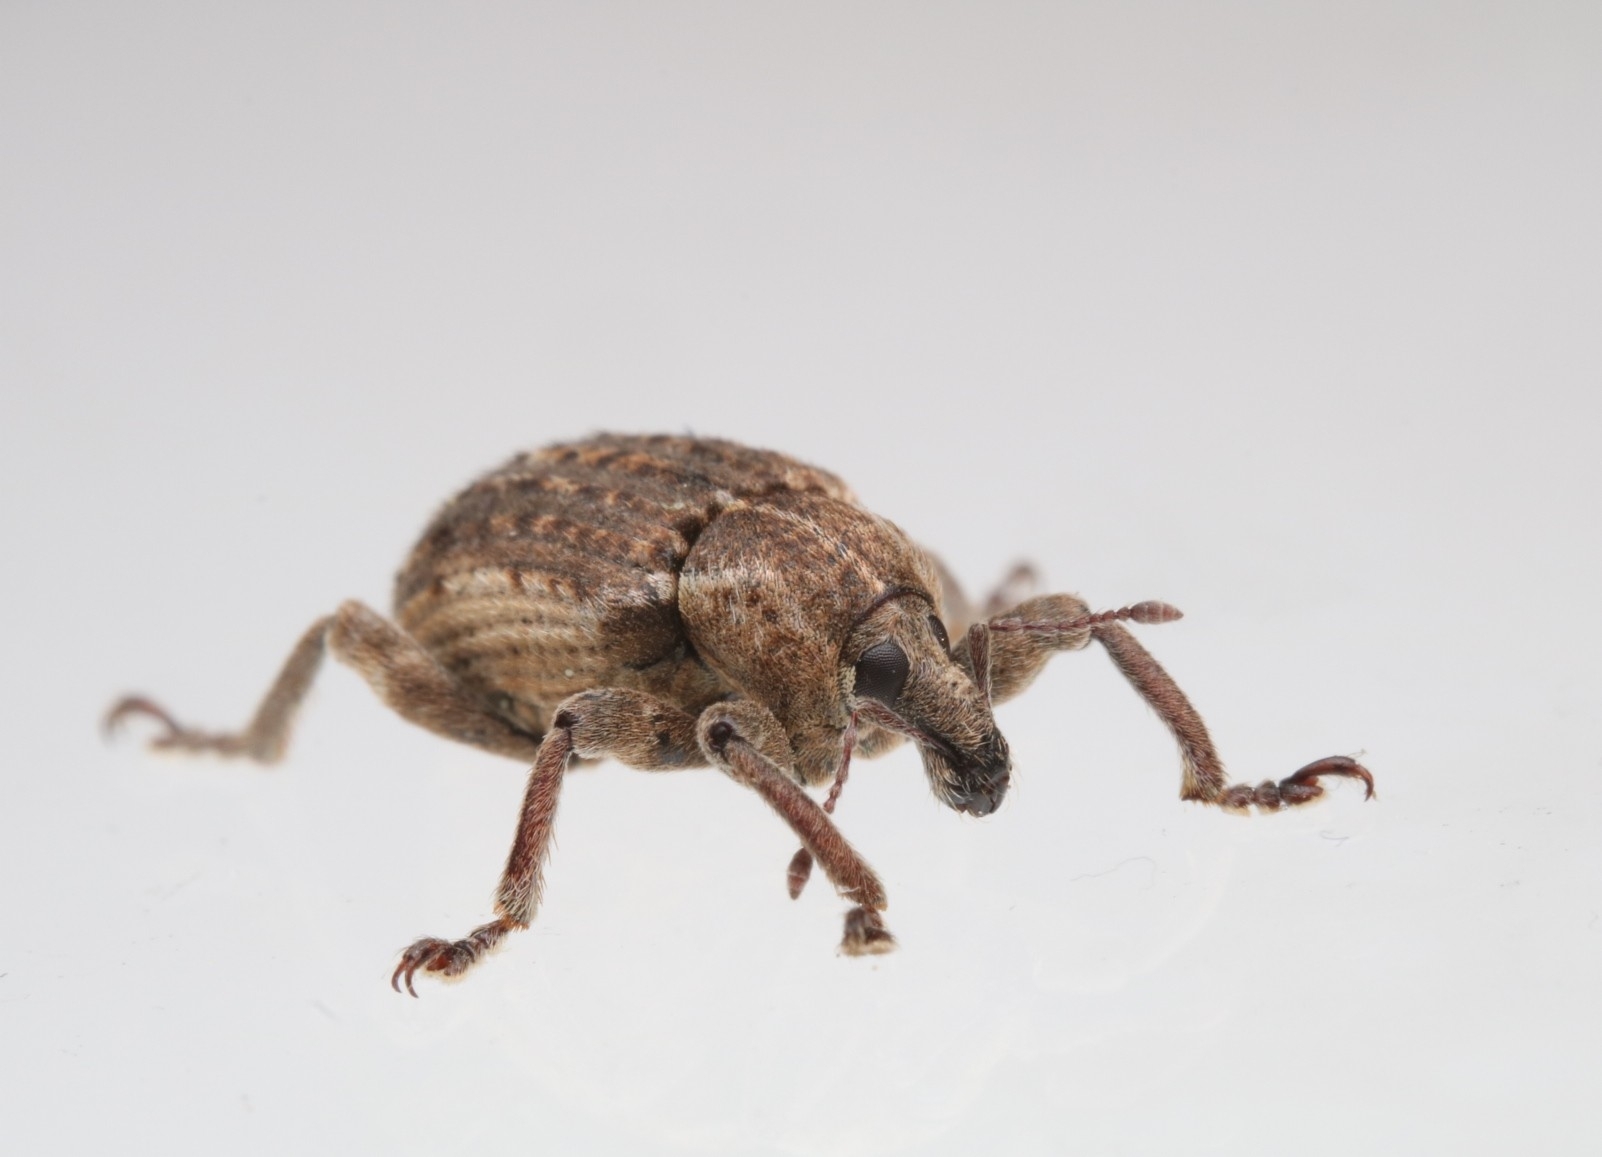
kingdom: Animalia
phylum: Arthropoda
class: Insecta
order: Coleoptera
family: Curculionidae
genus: Brachypera
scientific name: Brachypera zoilus
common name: Clover leaf weevil
